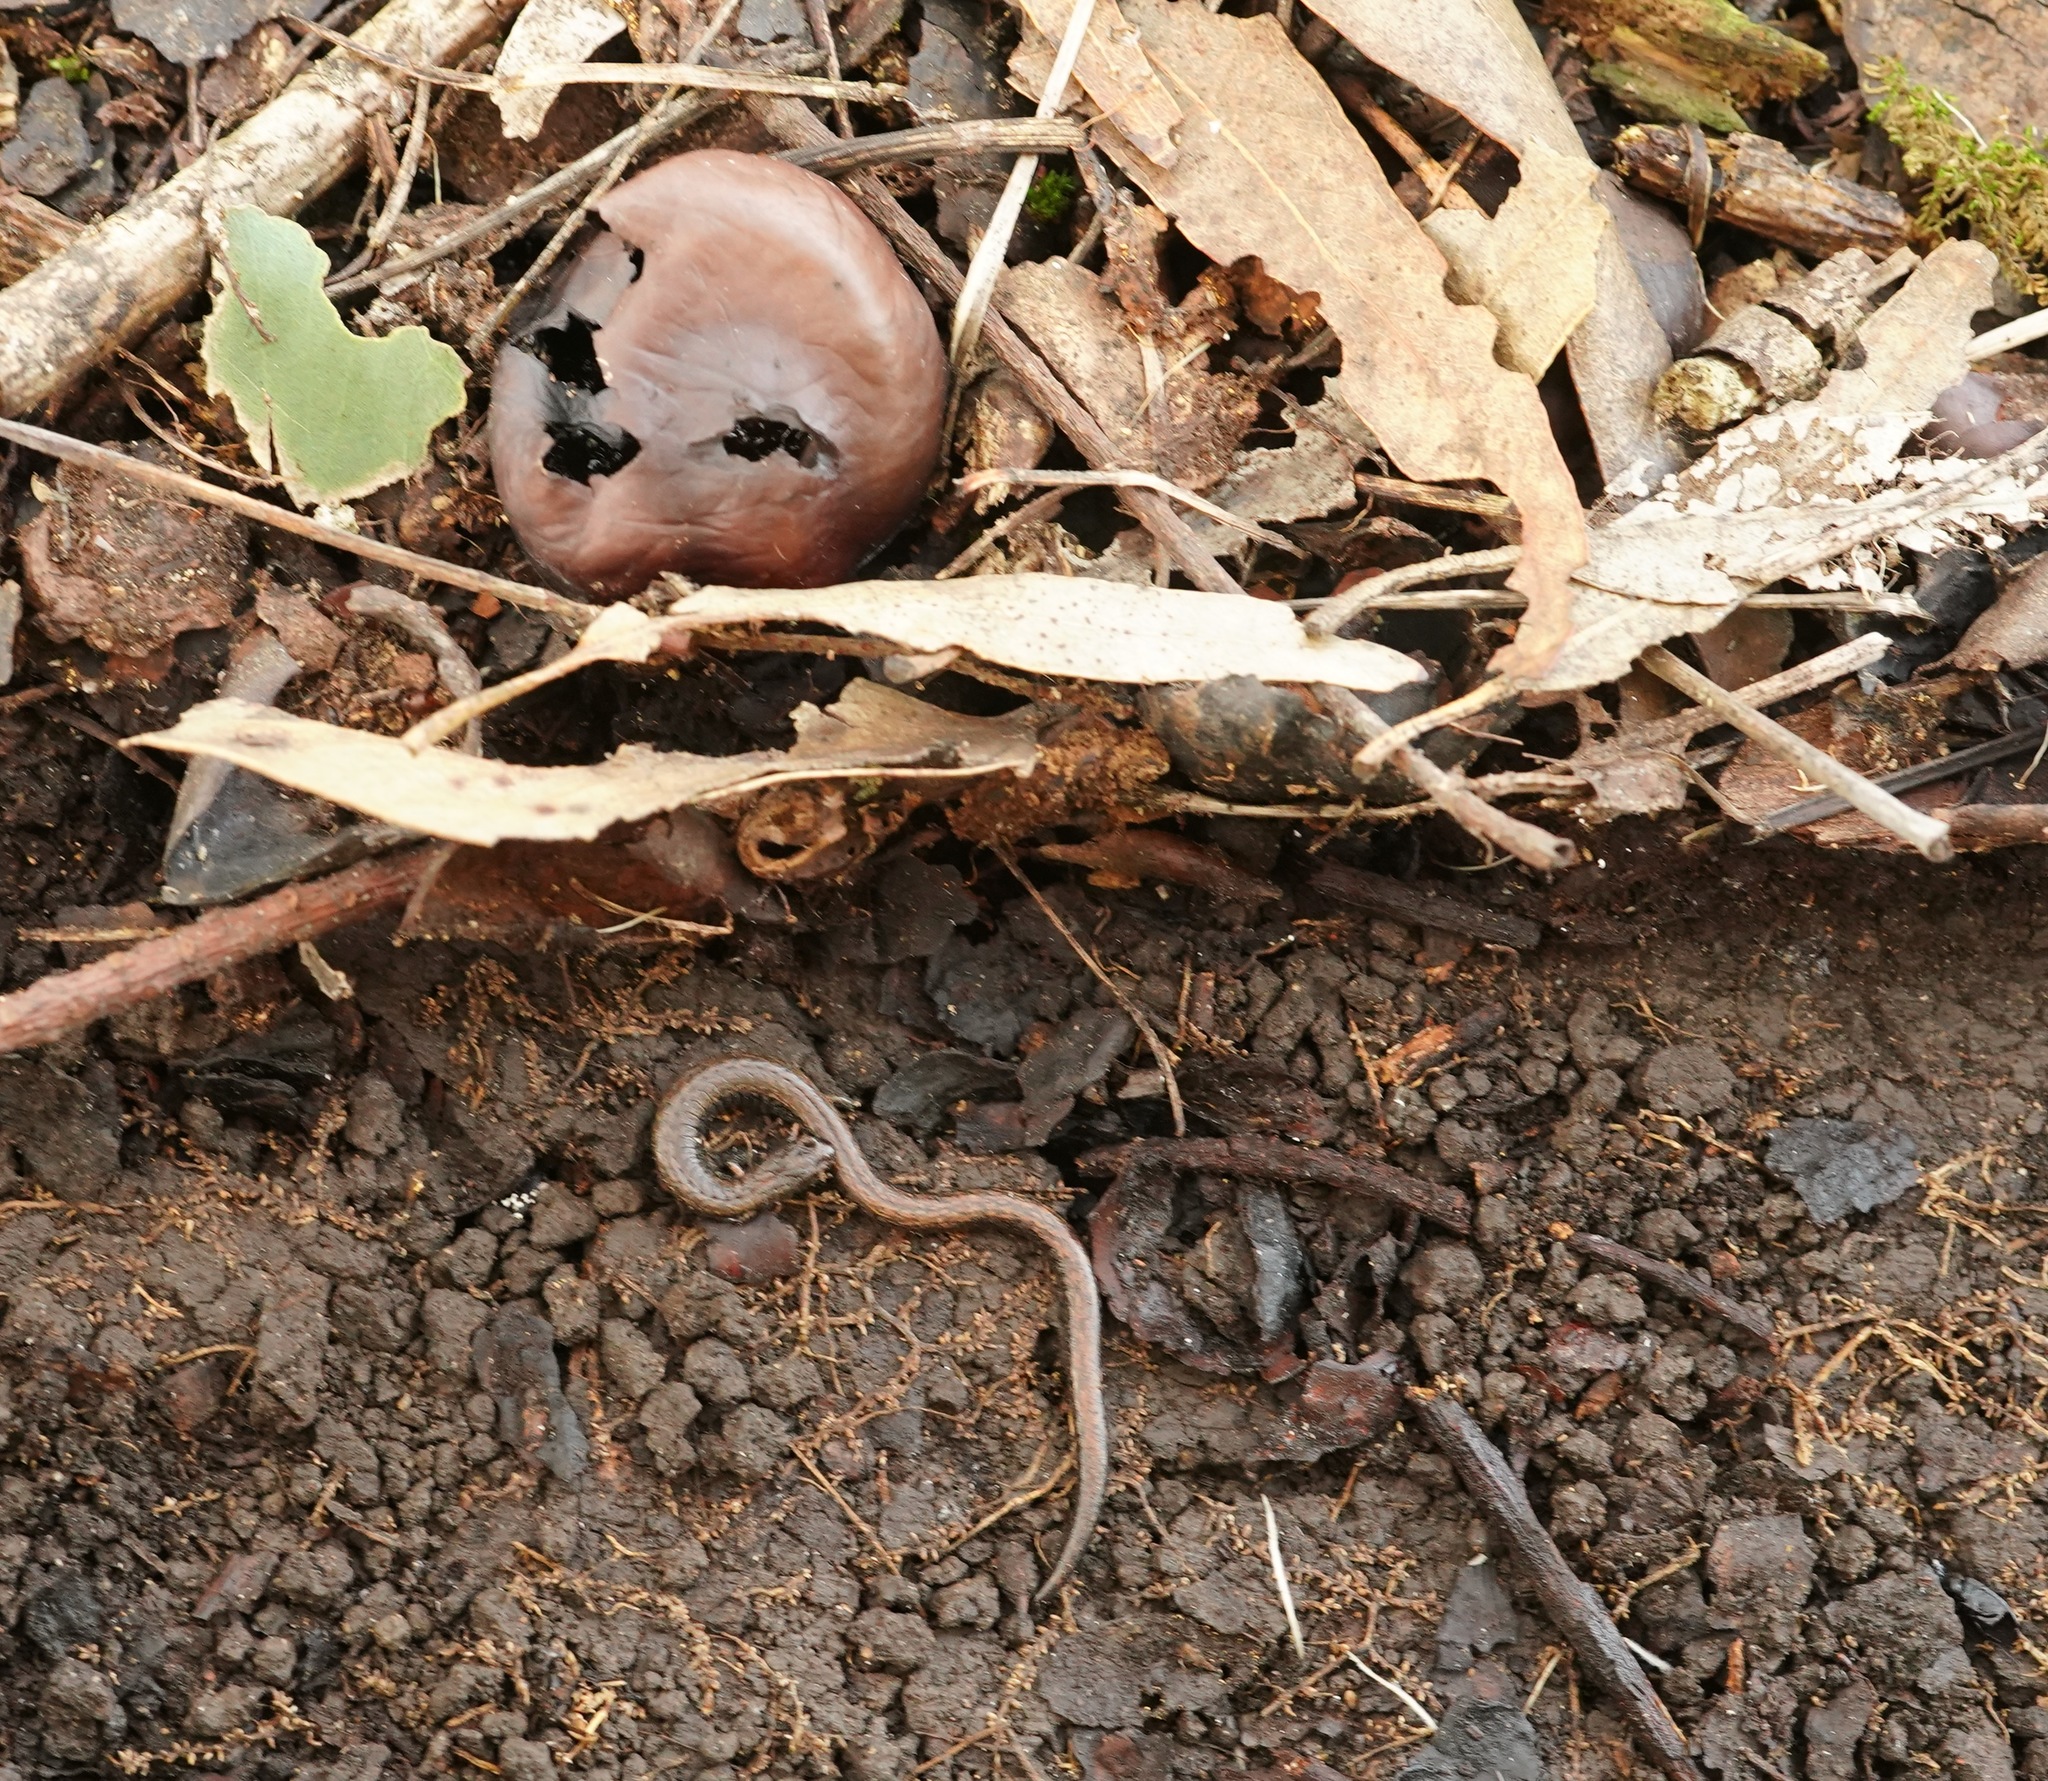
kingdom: Animalia
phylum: Chordata
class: Amphibia
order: Caudata
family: Plethodontidae
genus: Batrachoseps
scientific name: Batrachoseps attenuatus
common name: California slender salamander
